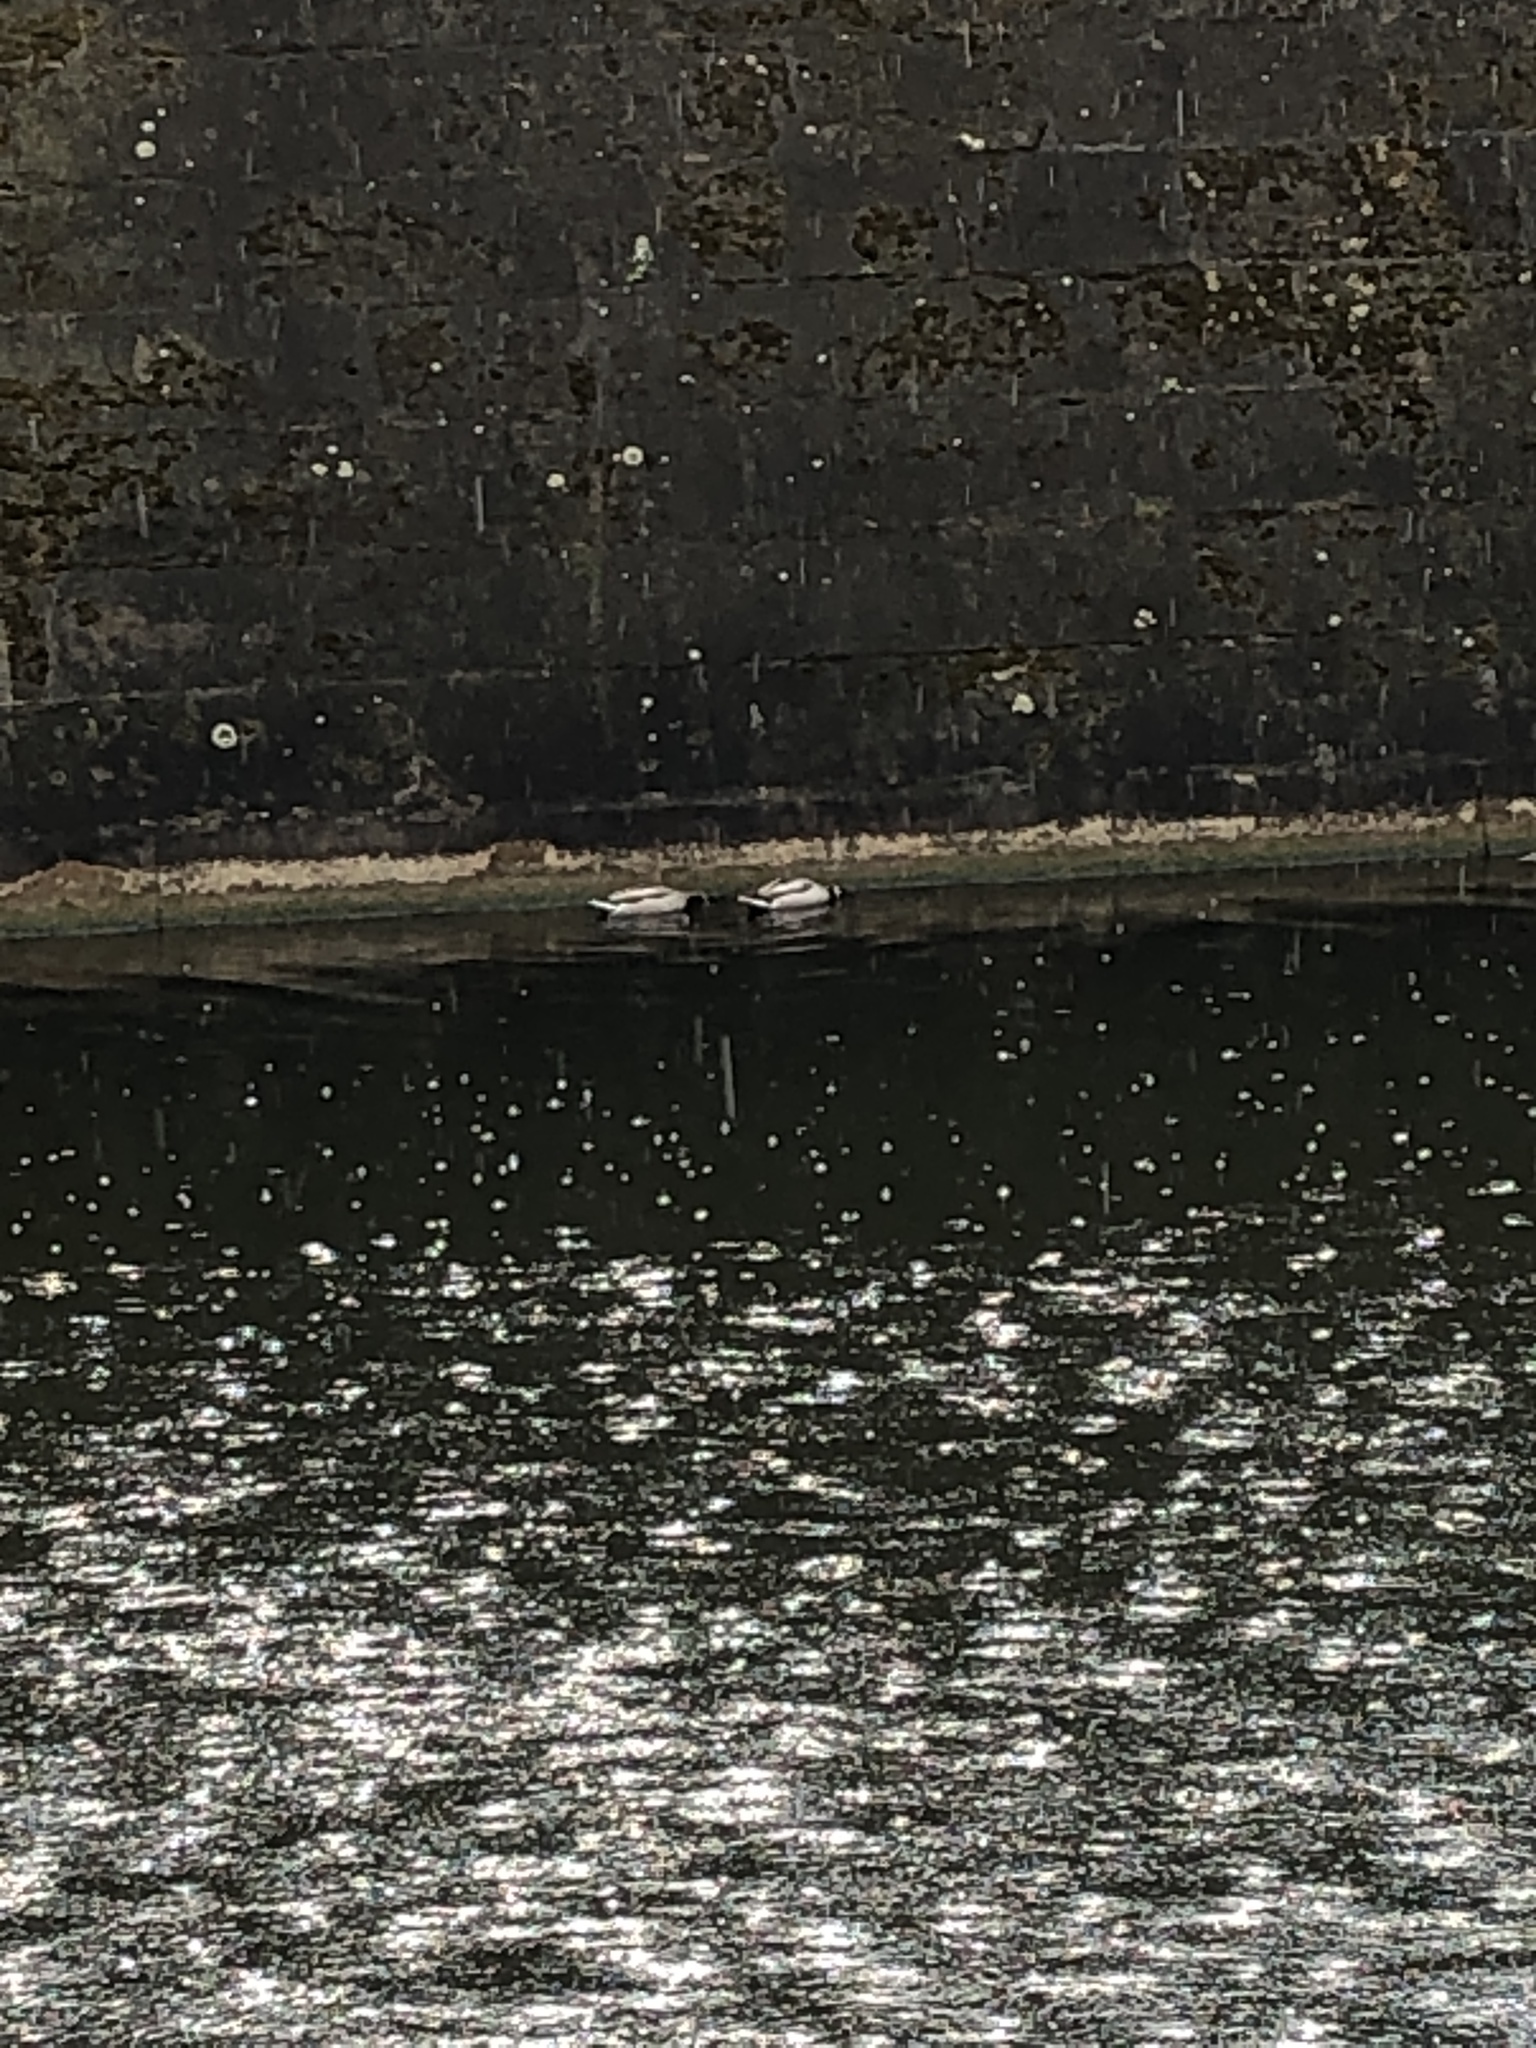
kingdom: Animalia
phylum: Chordata
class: Aves
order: Anseriformes
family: Anatidae
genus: Anas
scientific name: Anas platyrhynchos
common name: Mallard
